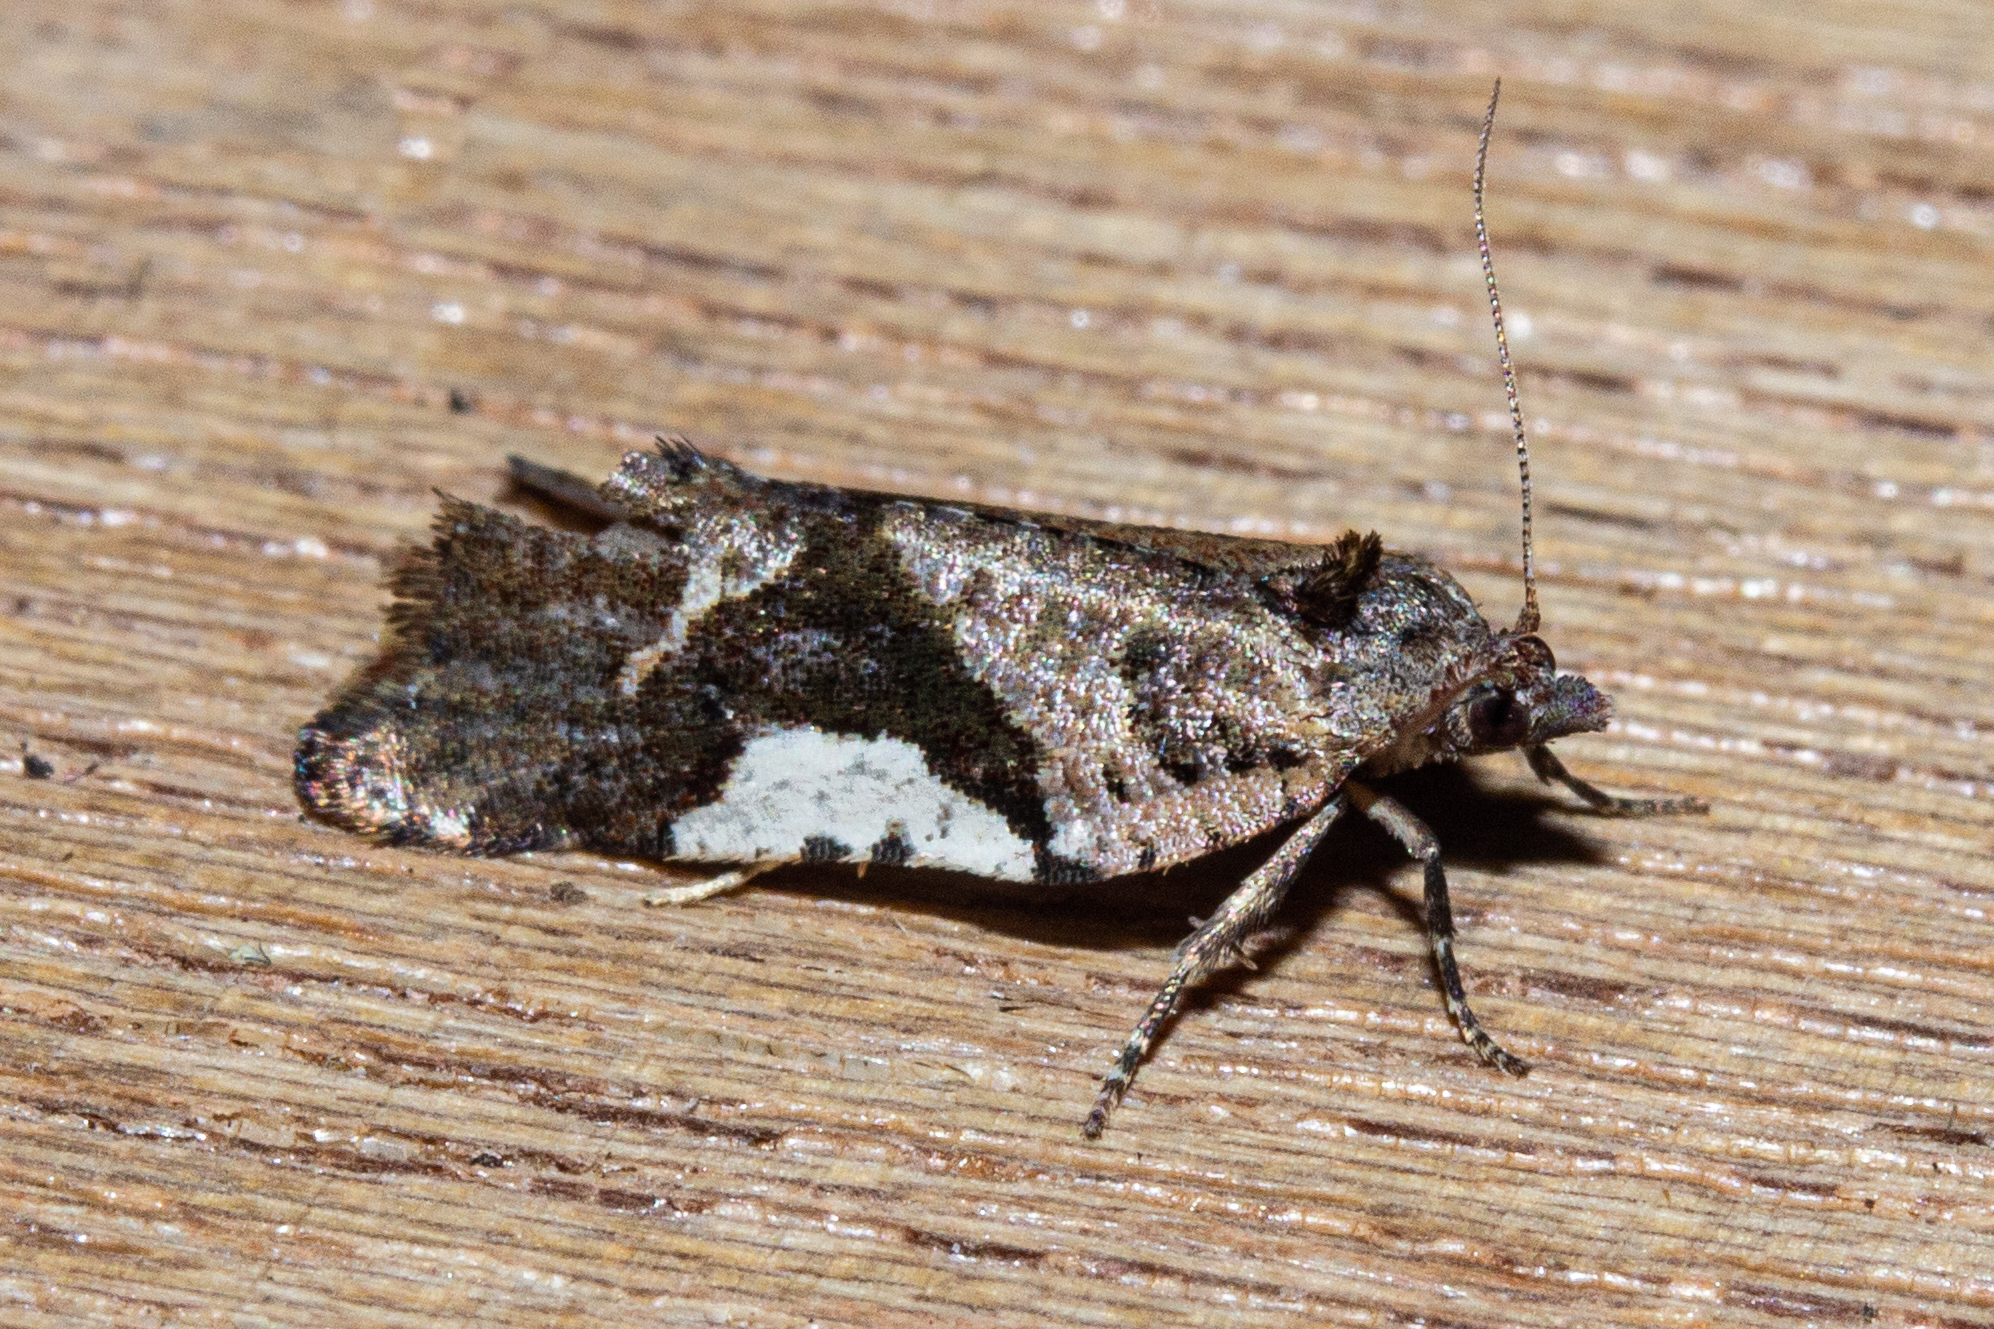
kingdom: Animalia
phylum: Arthropoda
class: Insecta
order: Lepidoptera
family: Tortricidae
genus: Pyrgotis
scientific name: Pyrgotis plagiatana
